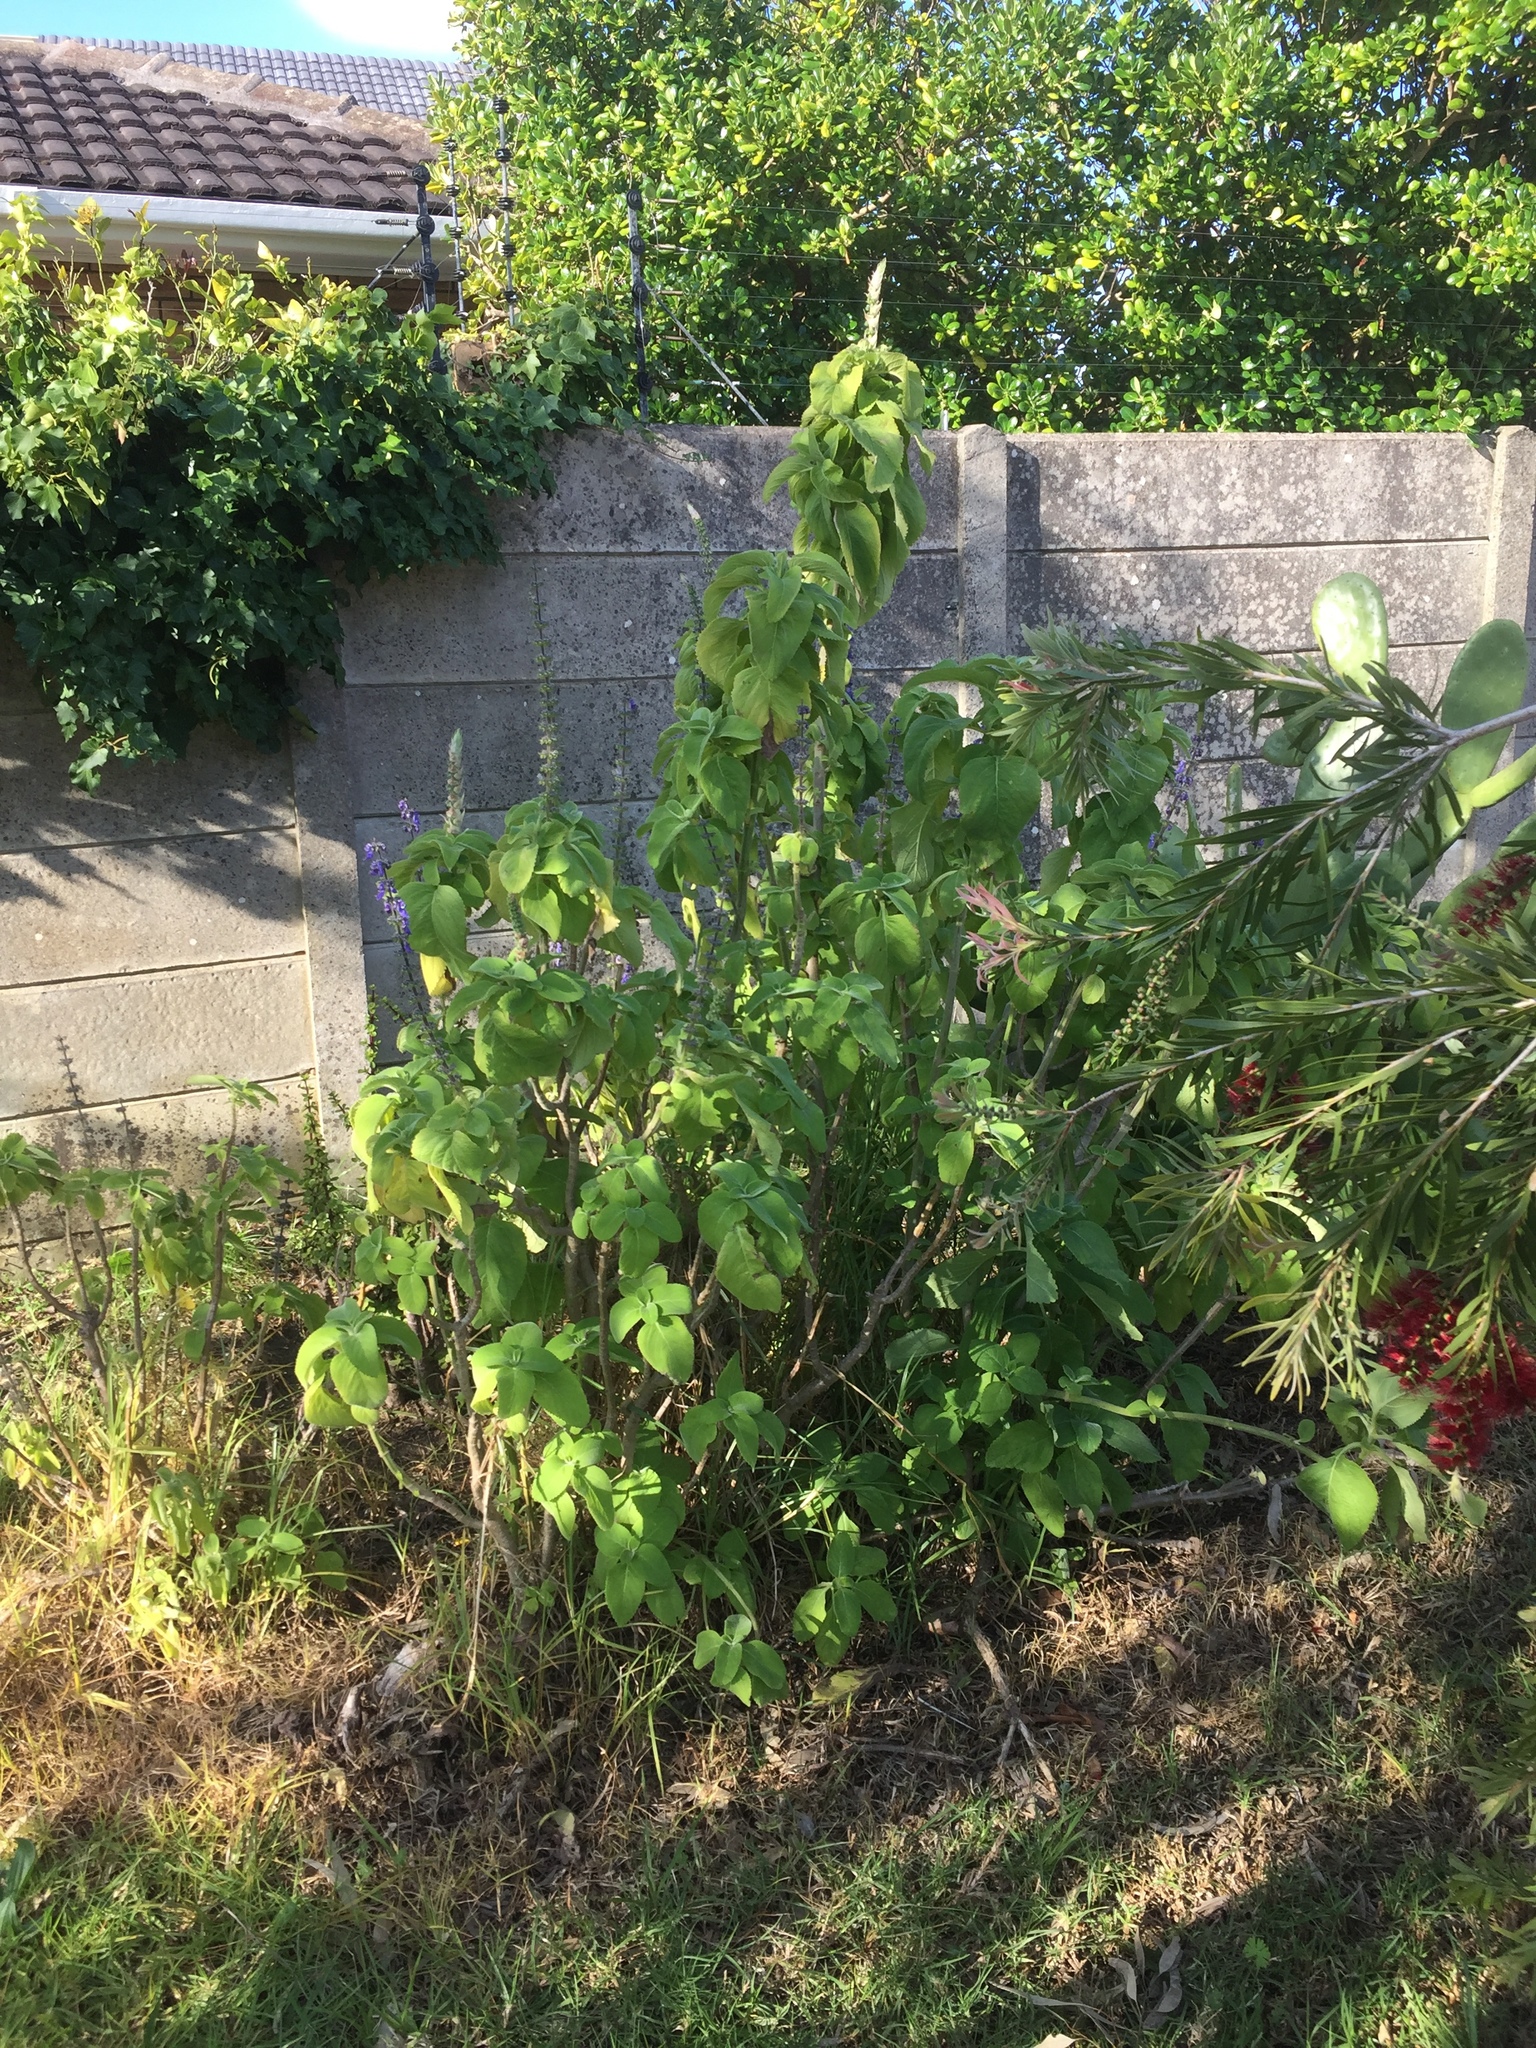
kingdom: Plantae
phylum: Tracheophyta
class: Magnoliopsida
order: Lamiales
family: Lamiaceae
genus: Coleus
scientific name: Coleus barbatus
